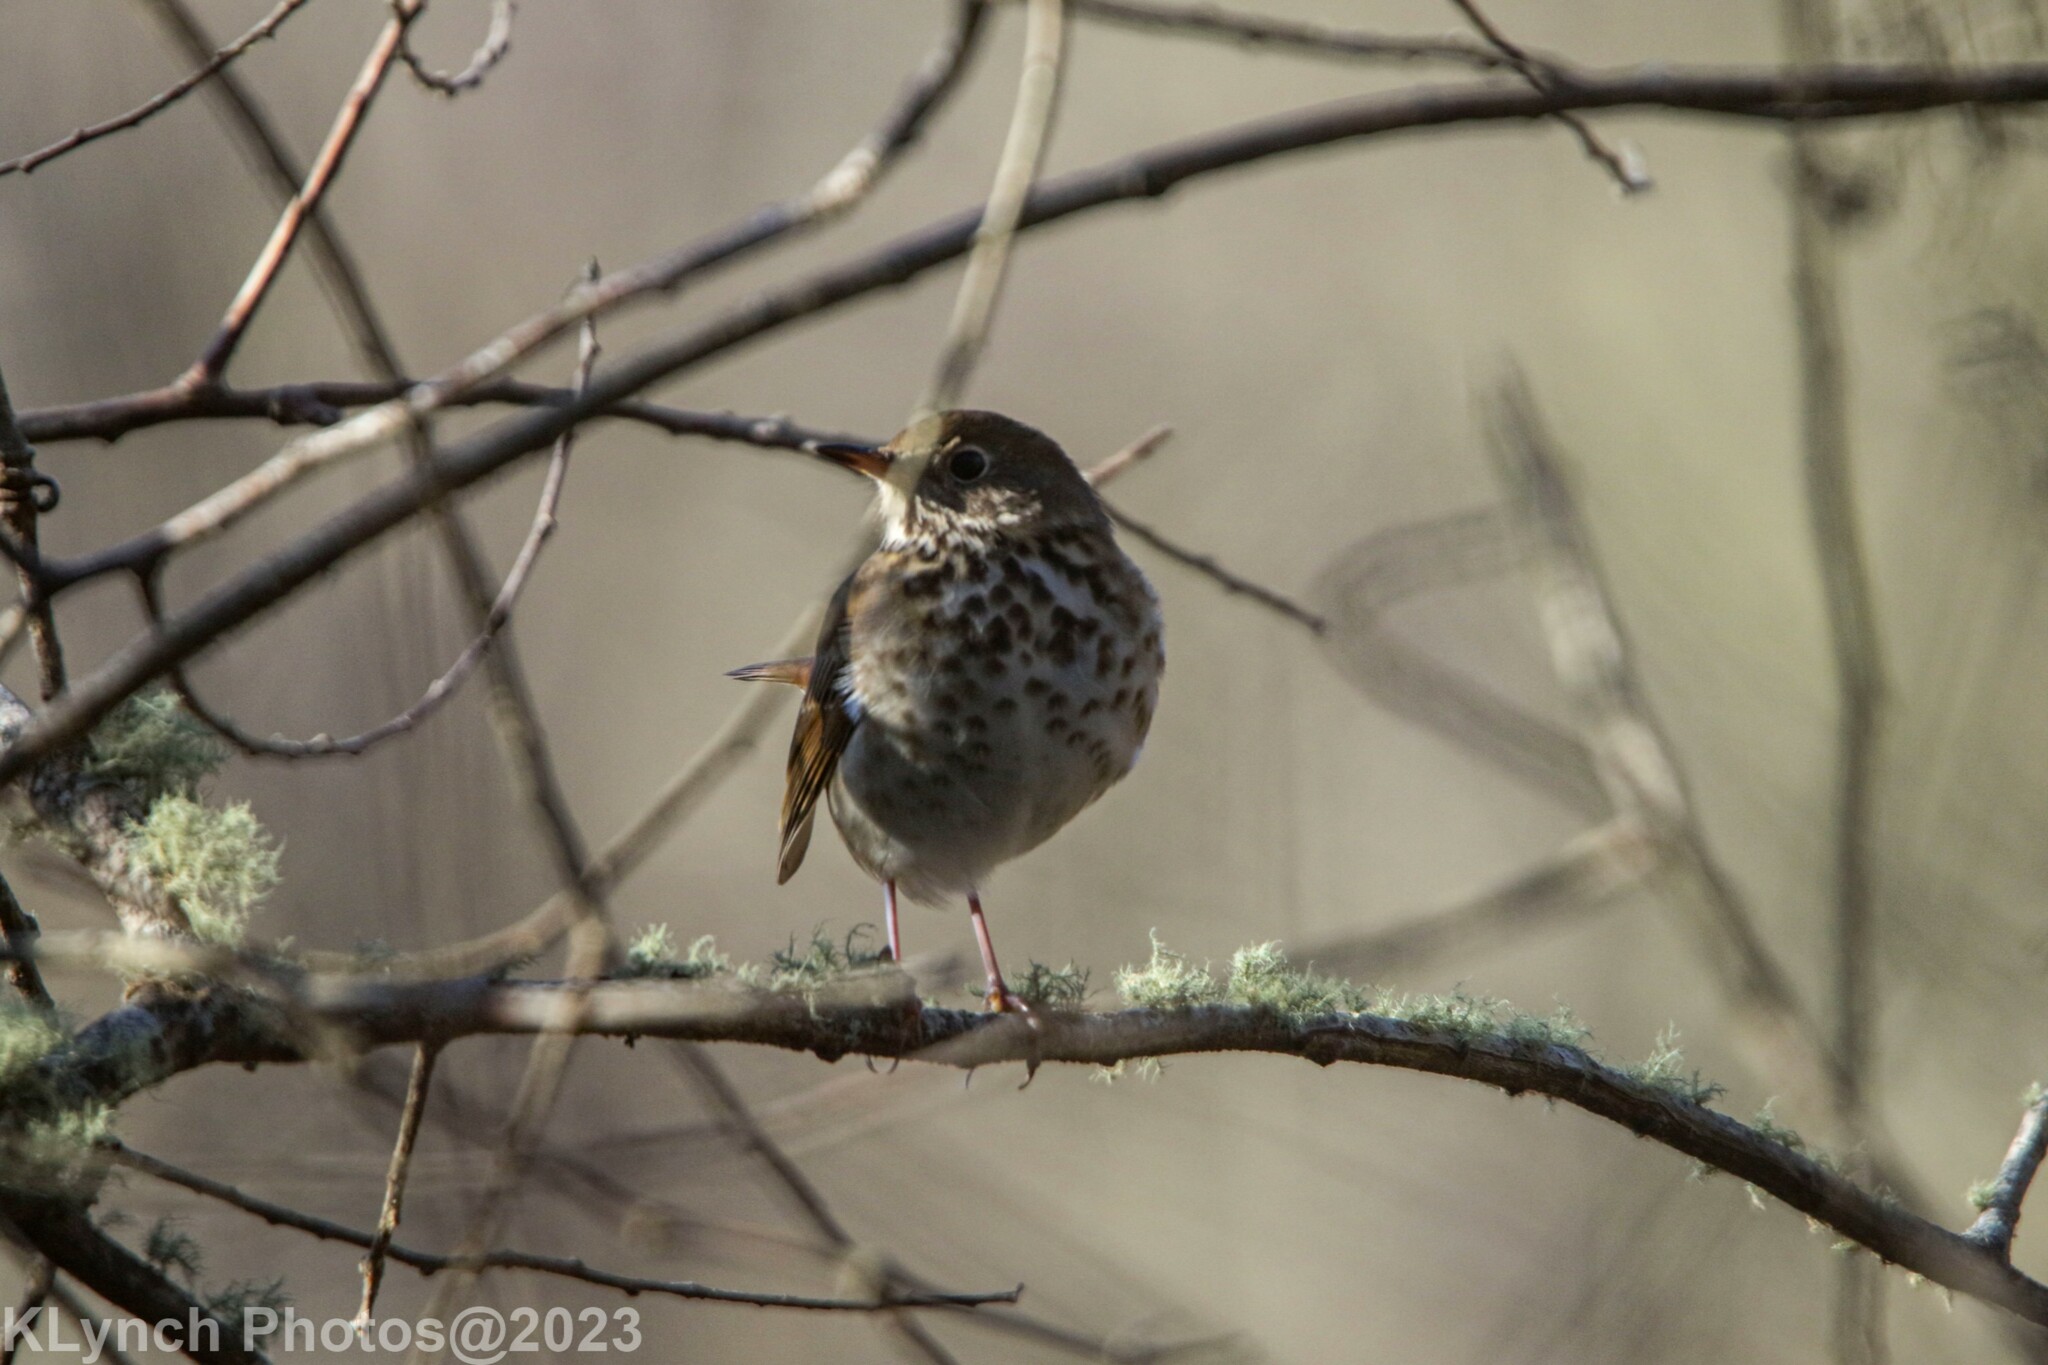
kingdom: Animalia
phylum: Chordata
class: Aves
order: Passeriformes
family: Turdidae
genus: Catharus
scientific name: Catharus guttatus
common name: Hermit thrush
